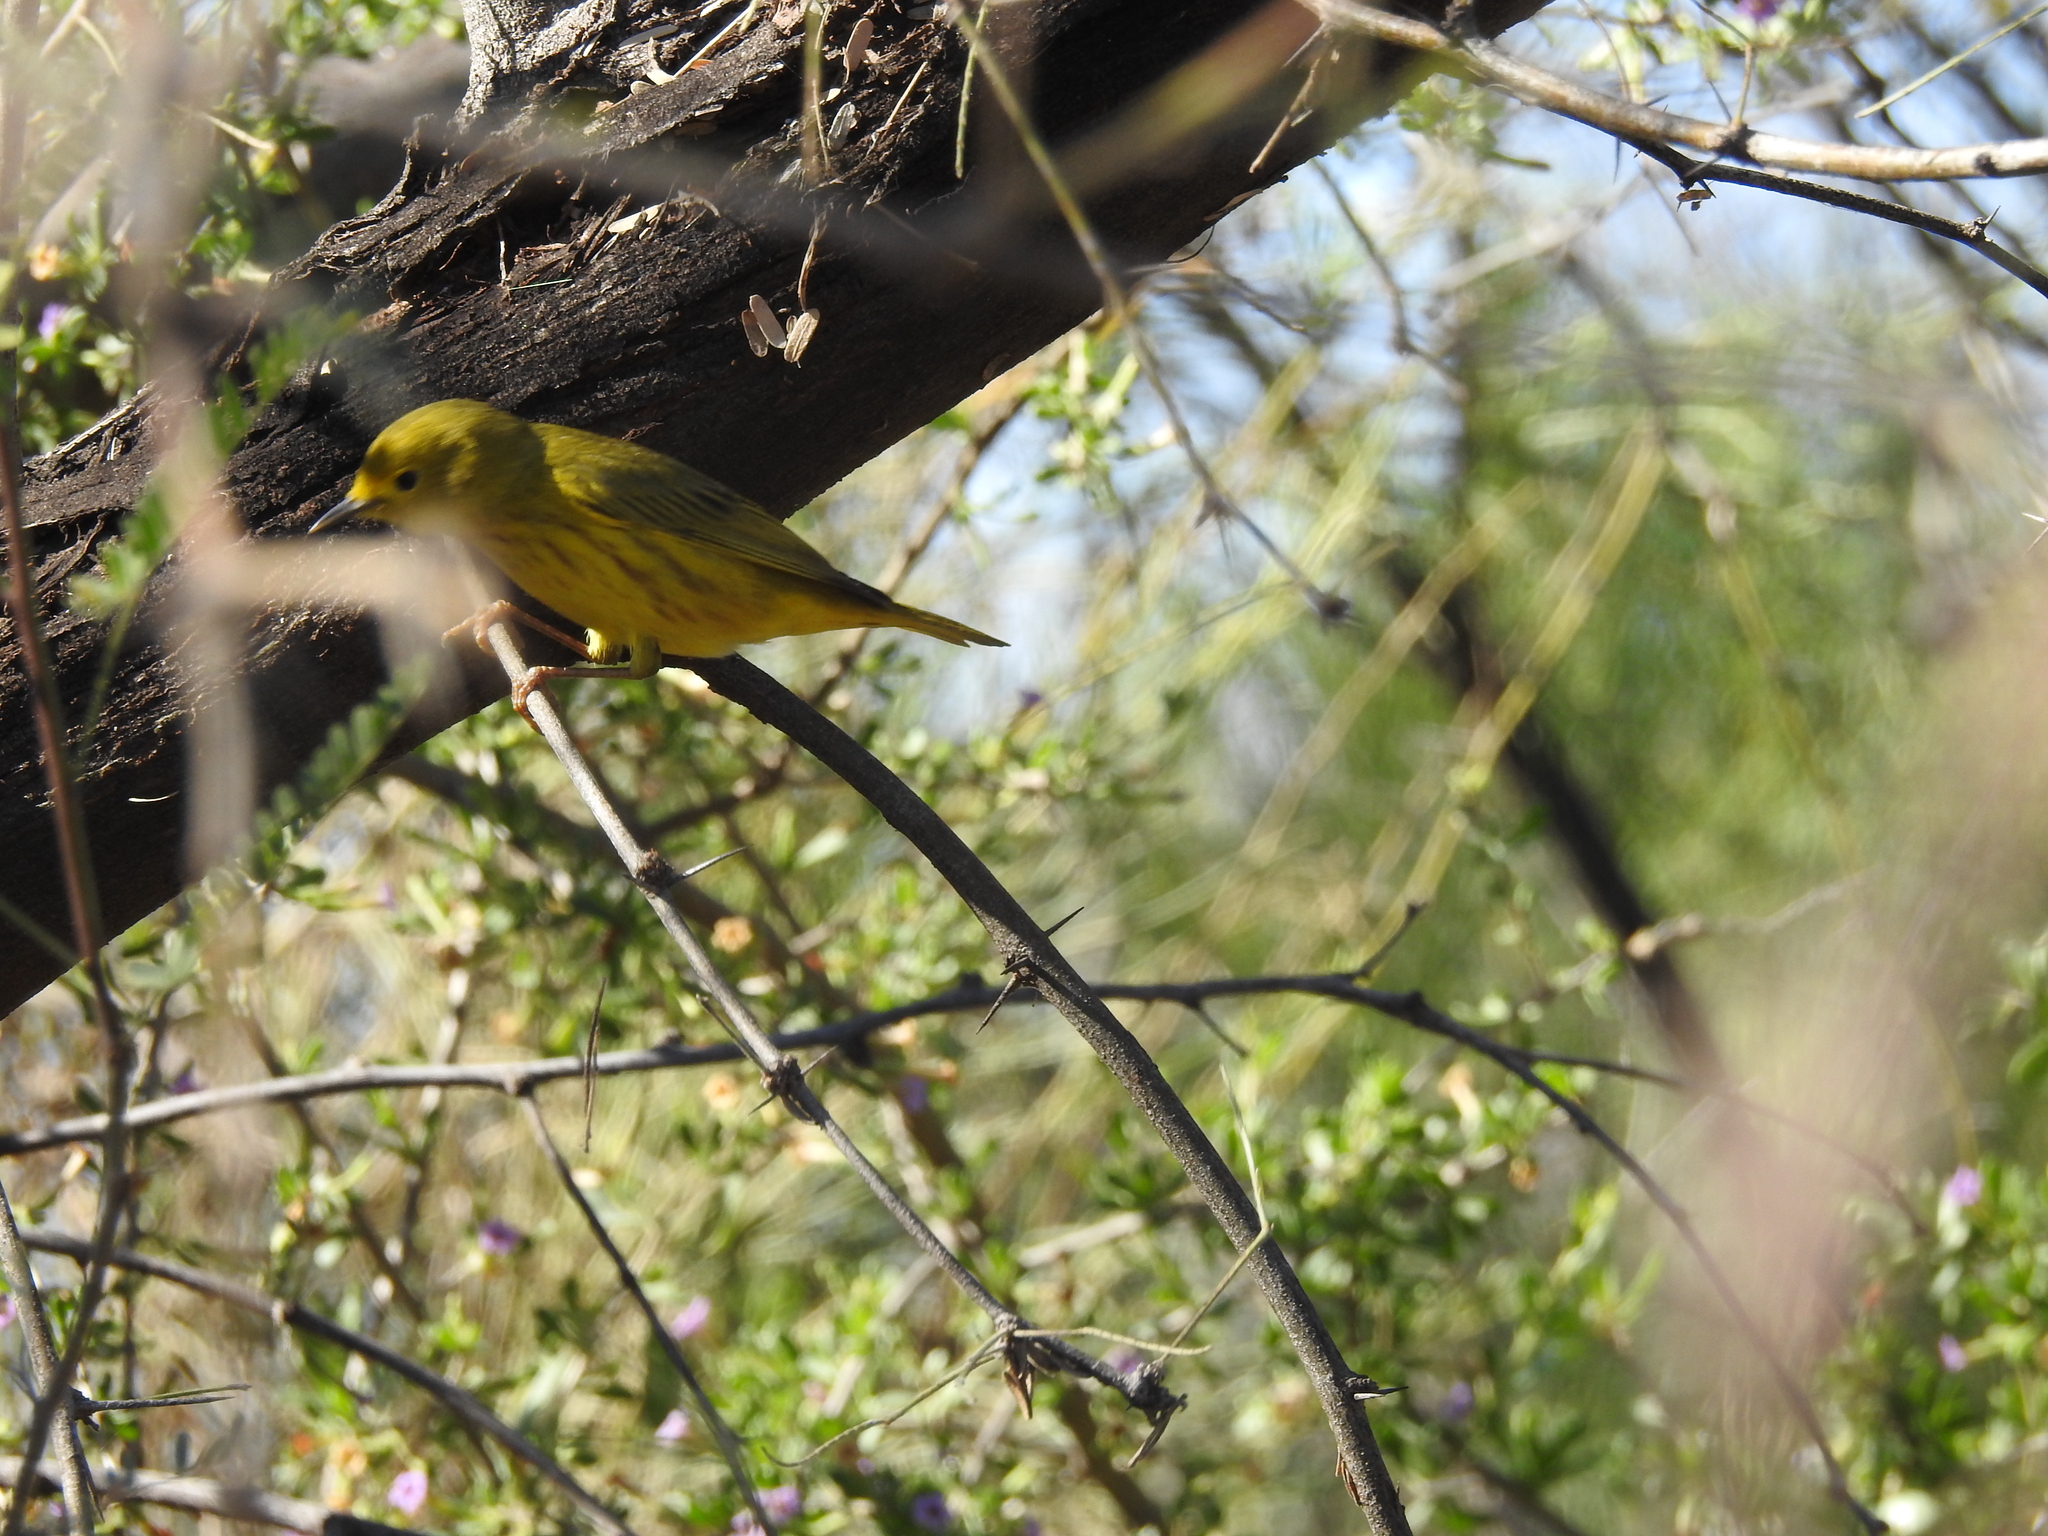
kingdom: Animalia
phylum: Chordata
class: Aves
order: Passeriformes
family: Parulidae
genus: Setophaga
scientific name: Setophaga petechia
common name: Yellow warbler
